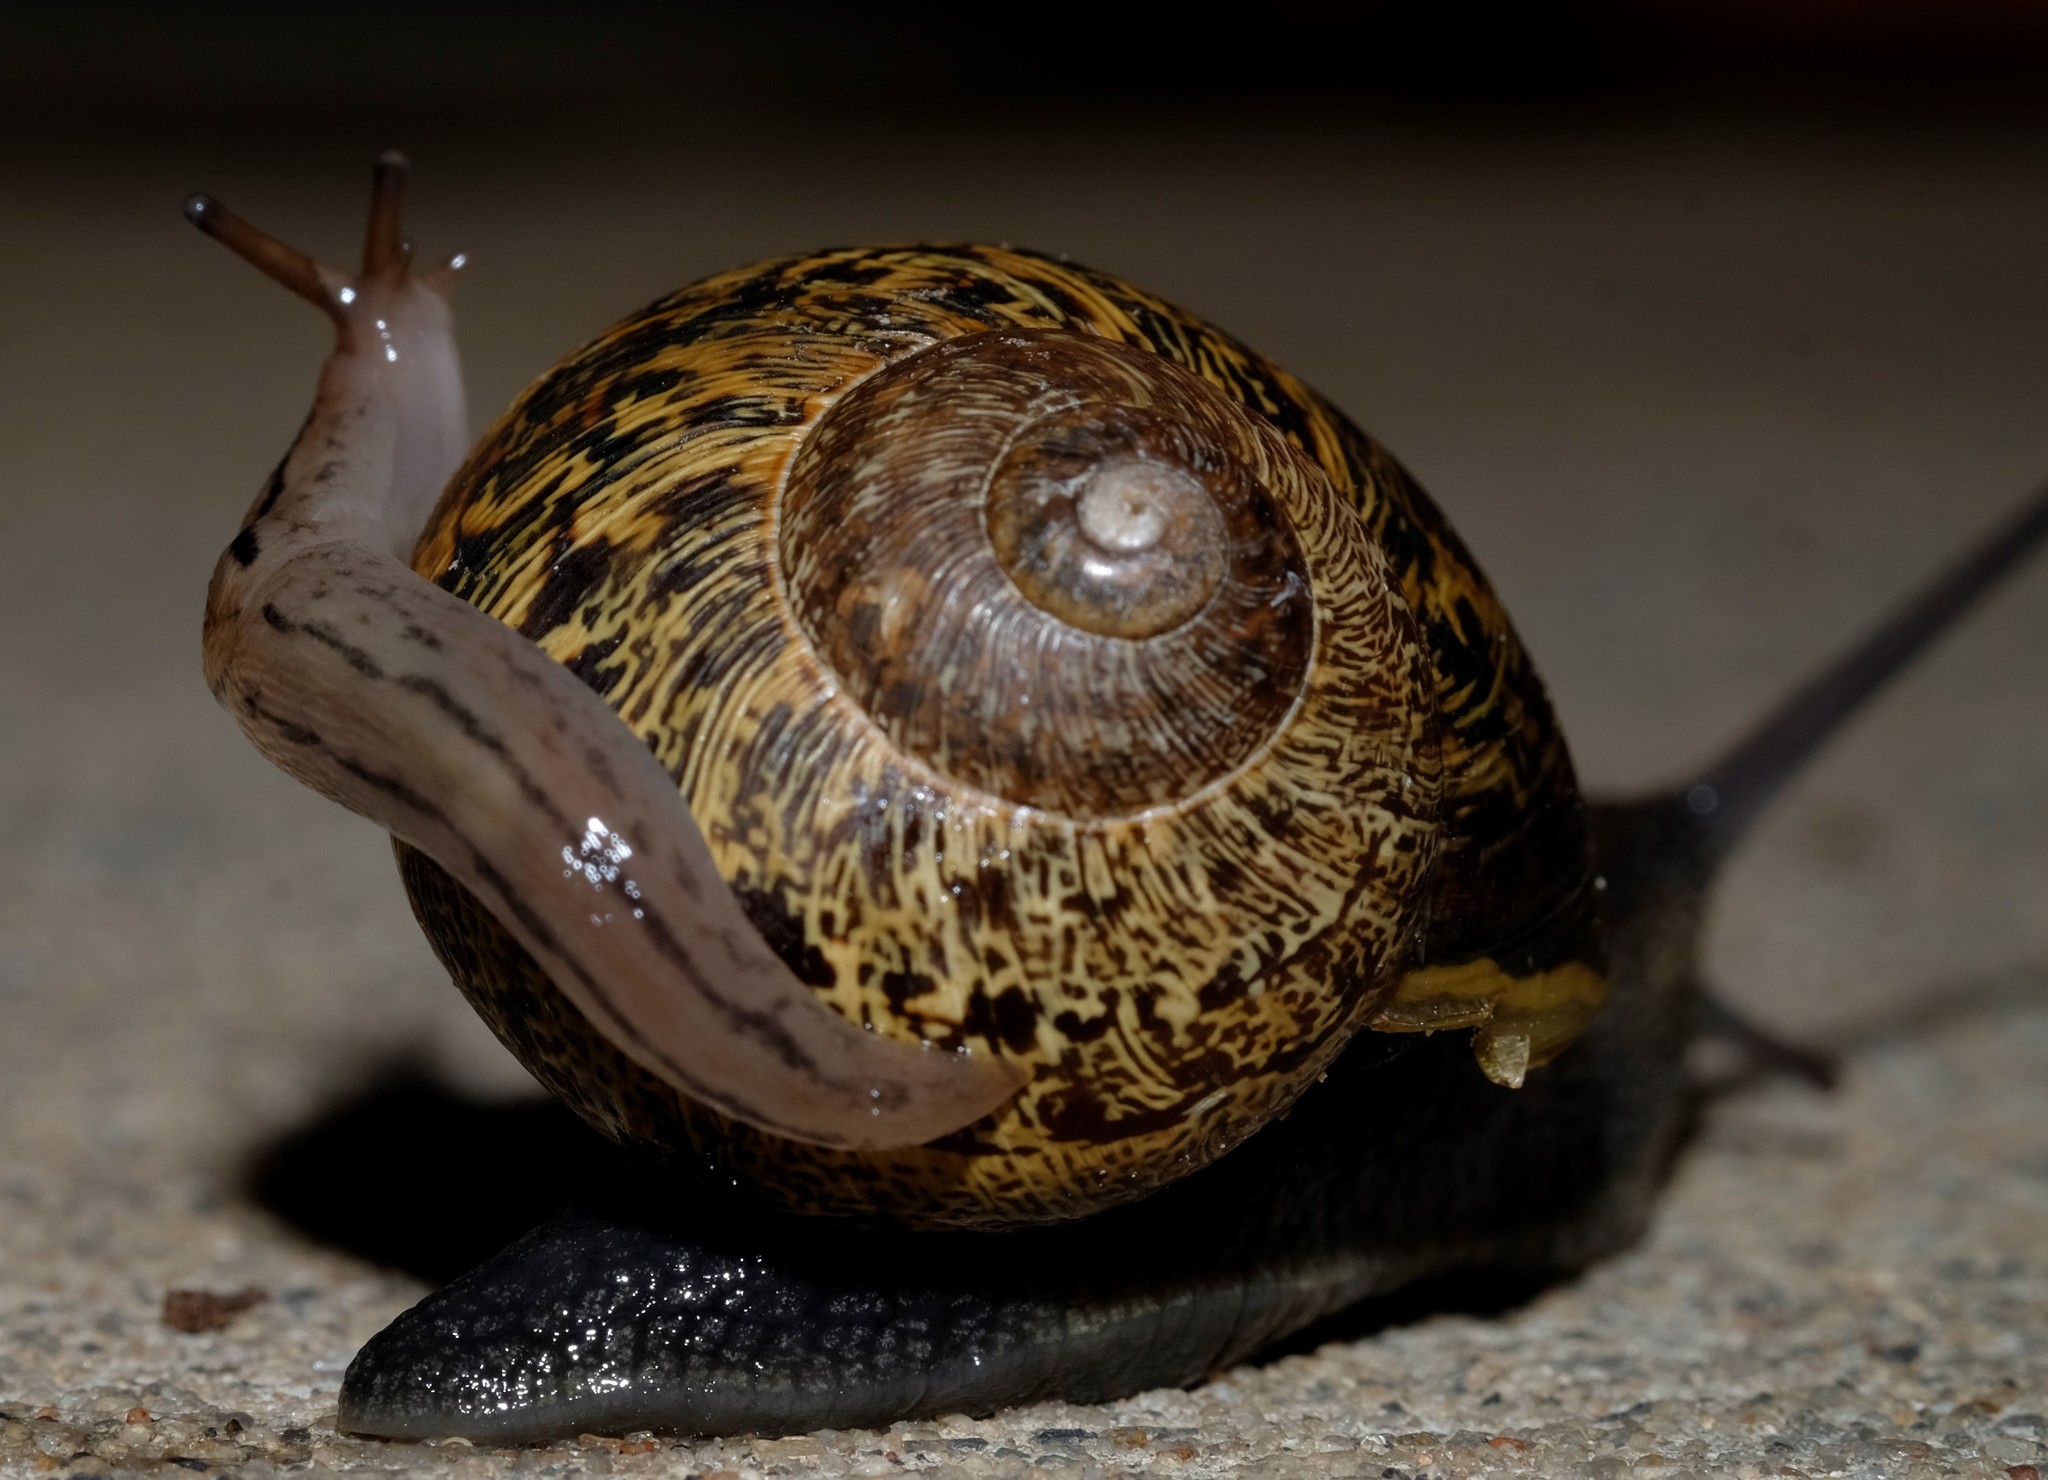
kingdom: Animalia
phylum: Mollusca
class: Gastropoda
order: Stylommatophora
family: Limacidae
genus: Ambigolimax
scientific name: Ambigolimax
